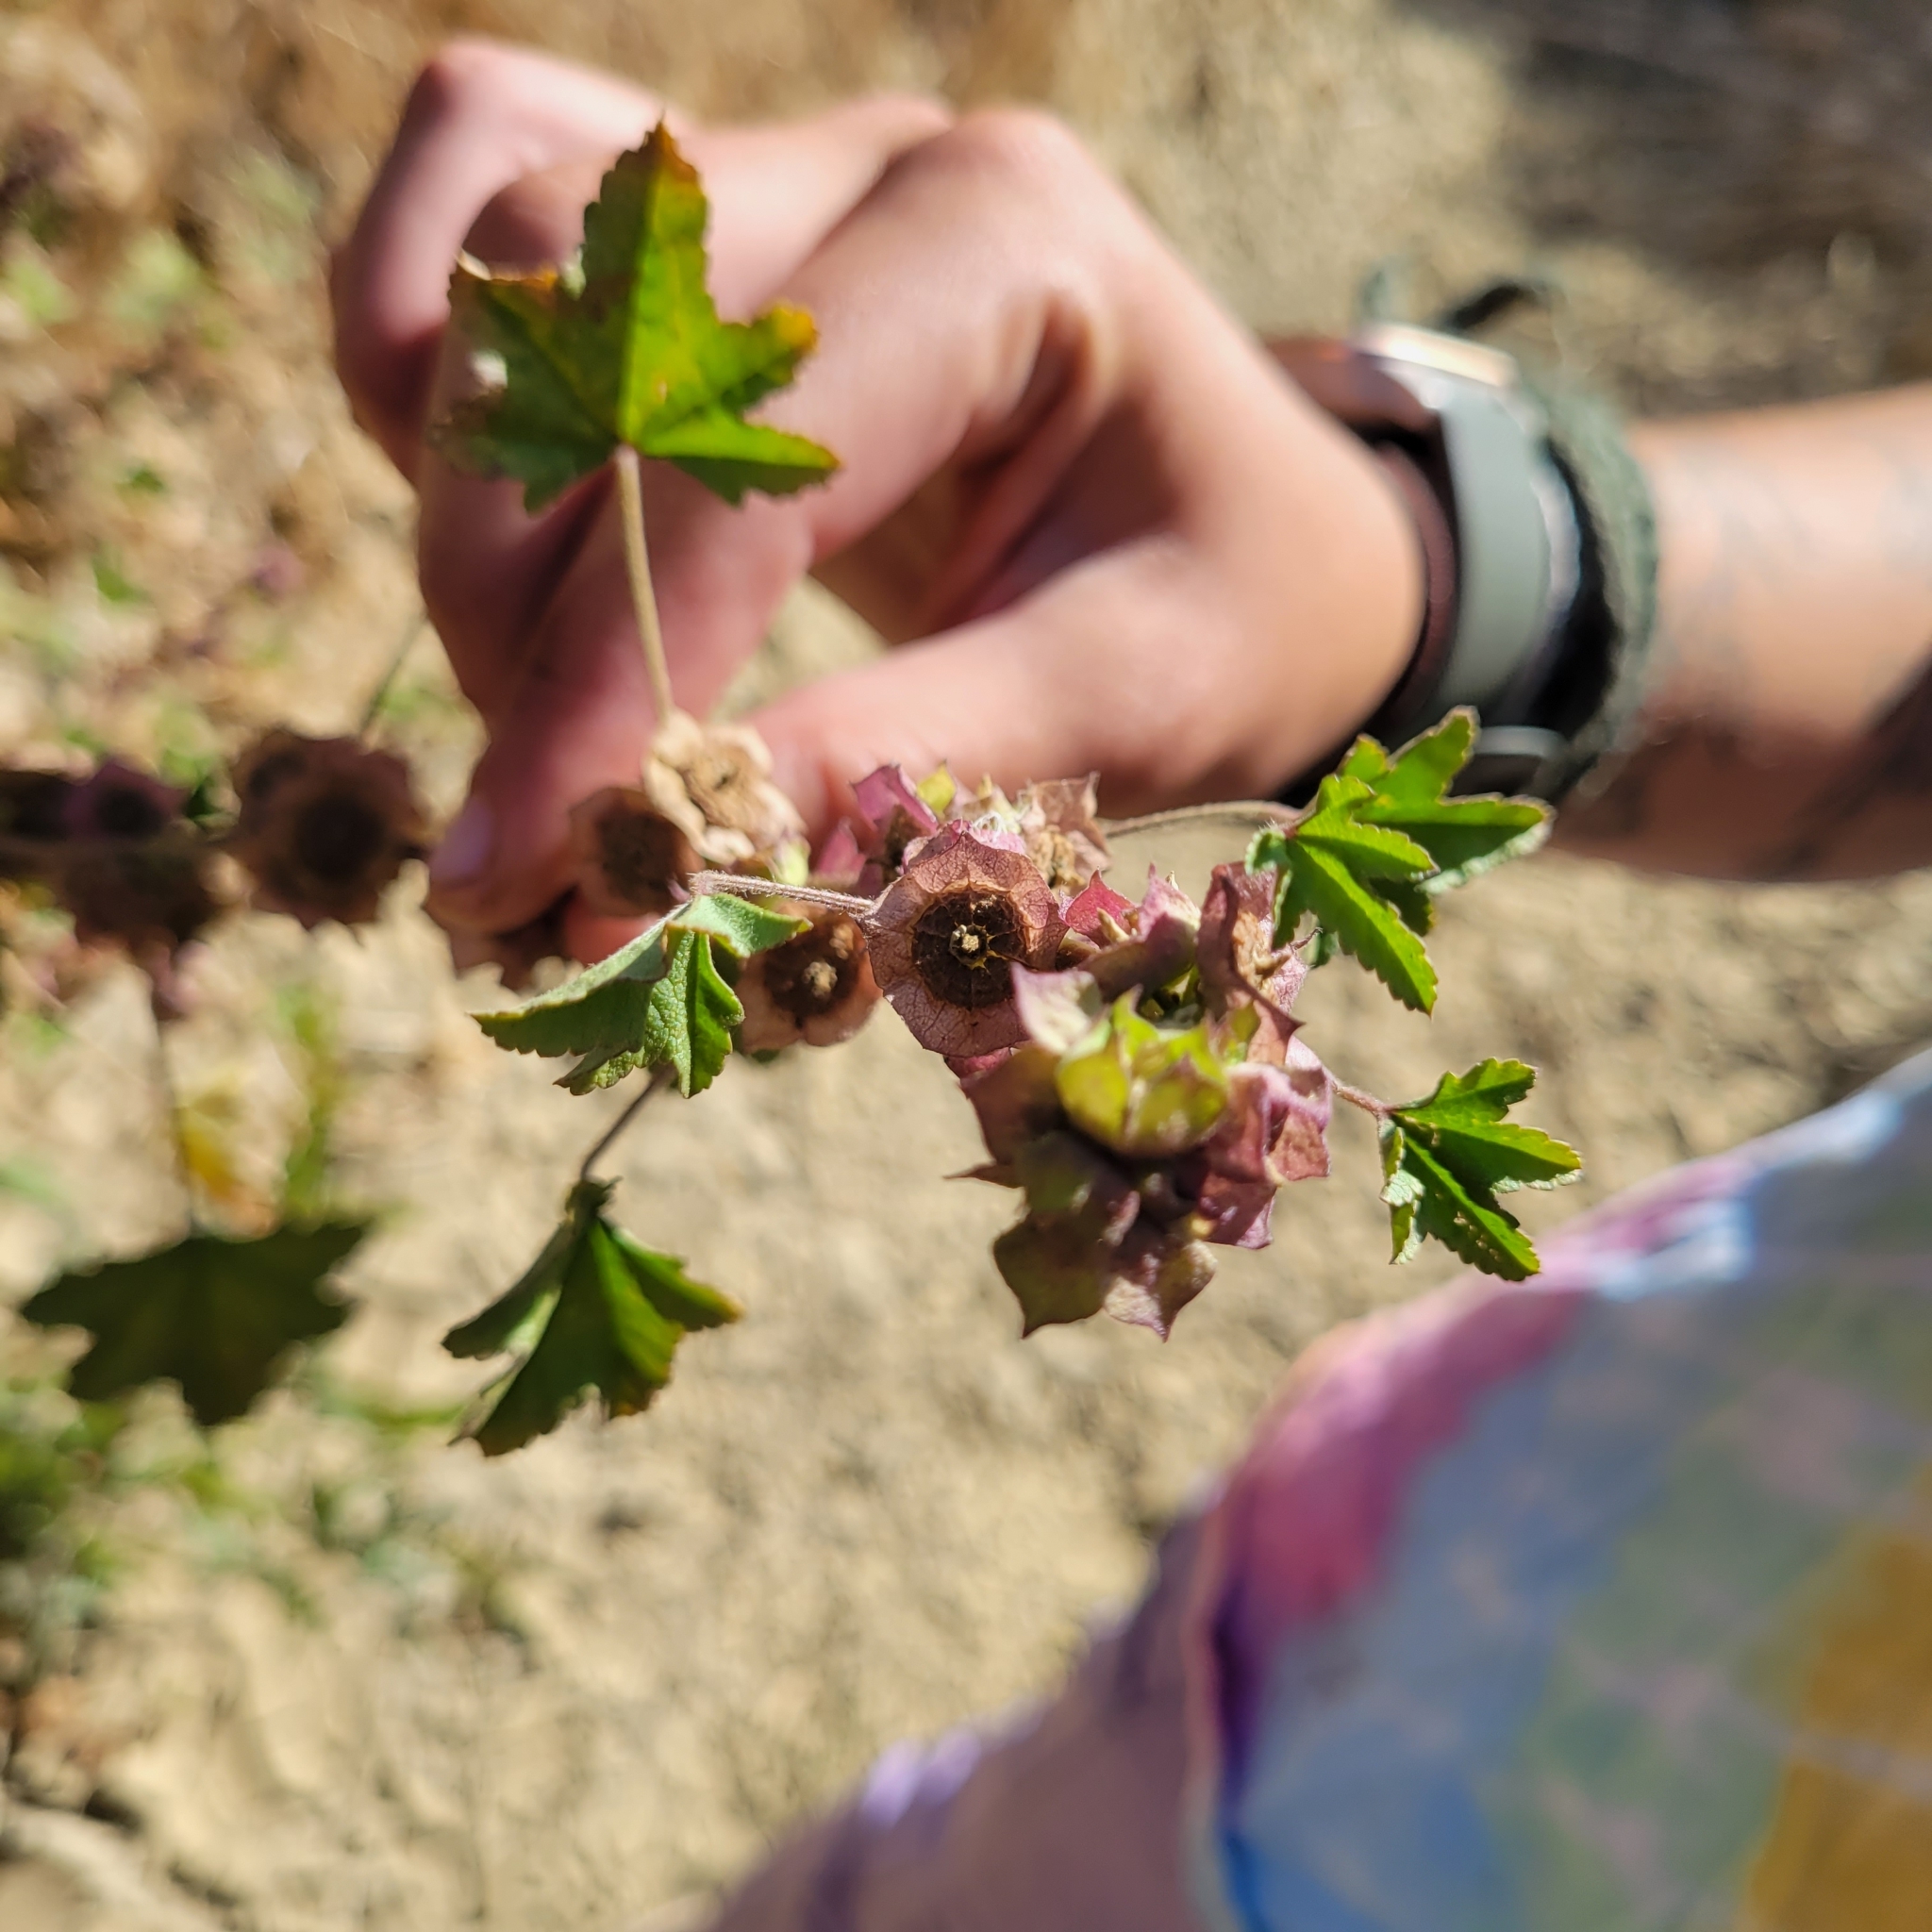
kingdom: Plantae
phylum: Tracheophyta
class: Magnoliopsida
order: Malvales
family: Malvaceae
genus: Malva
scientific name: Malva parviflora
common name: Least mallow
